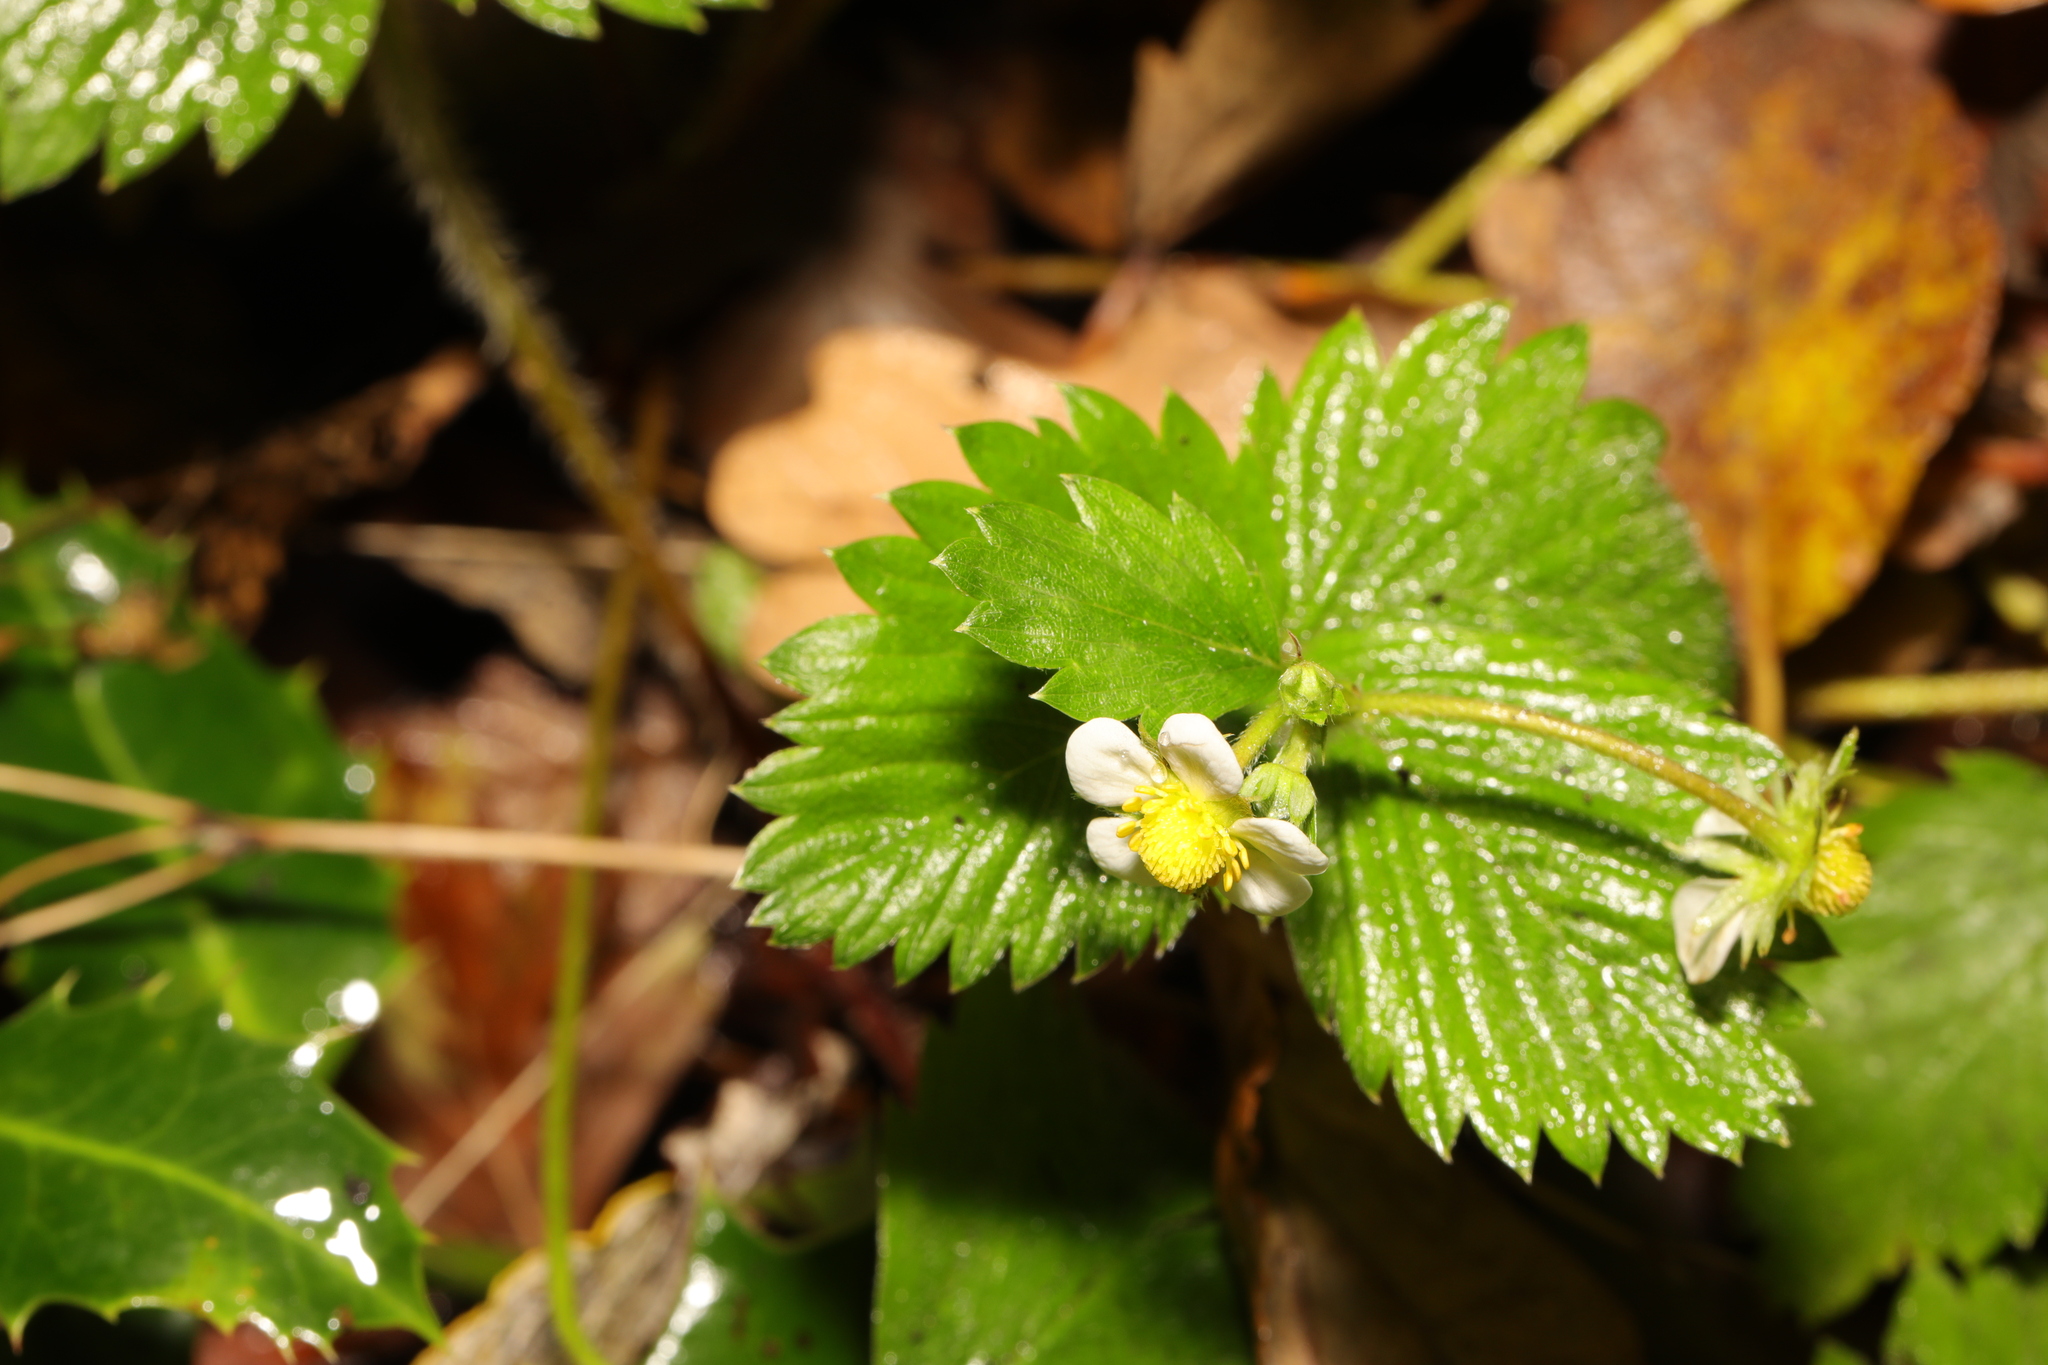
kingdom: Plantae
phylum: Tracheophyta
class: Magnoliopsida
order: Rosales
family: Rosaceae
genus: Fragaria
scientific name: Fragaria vesca
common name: Wild strawberry
